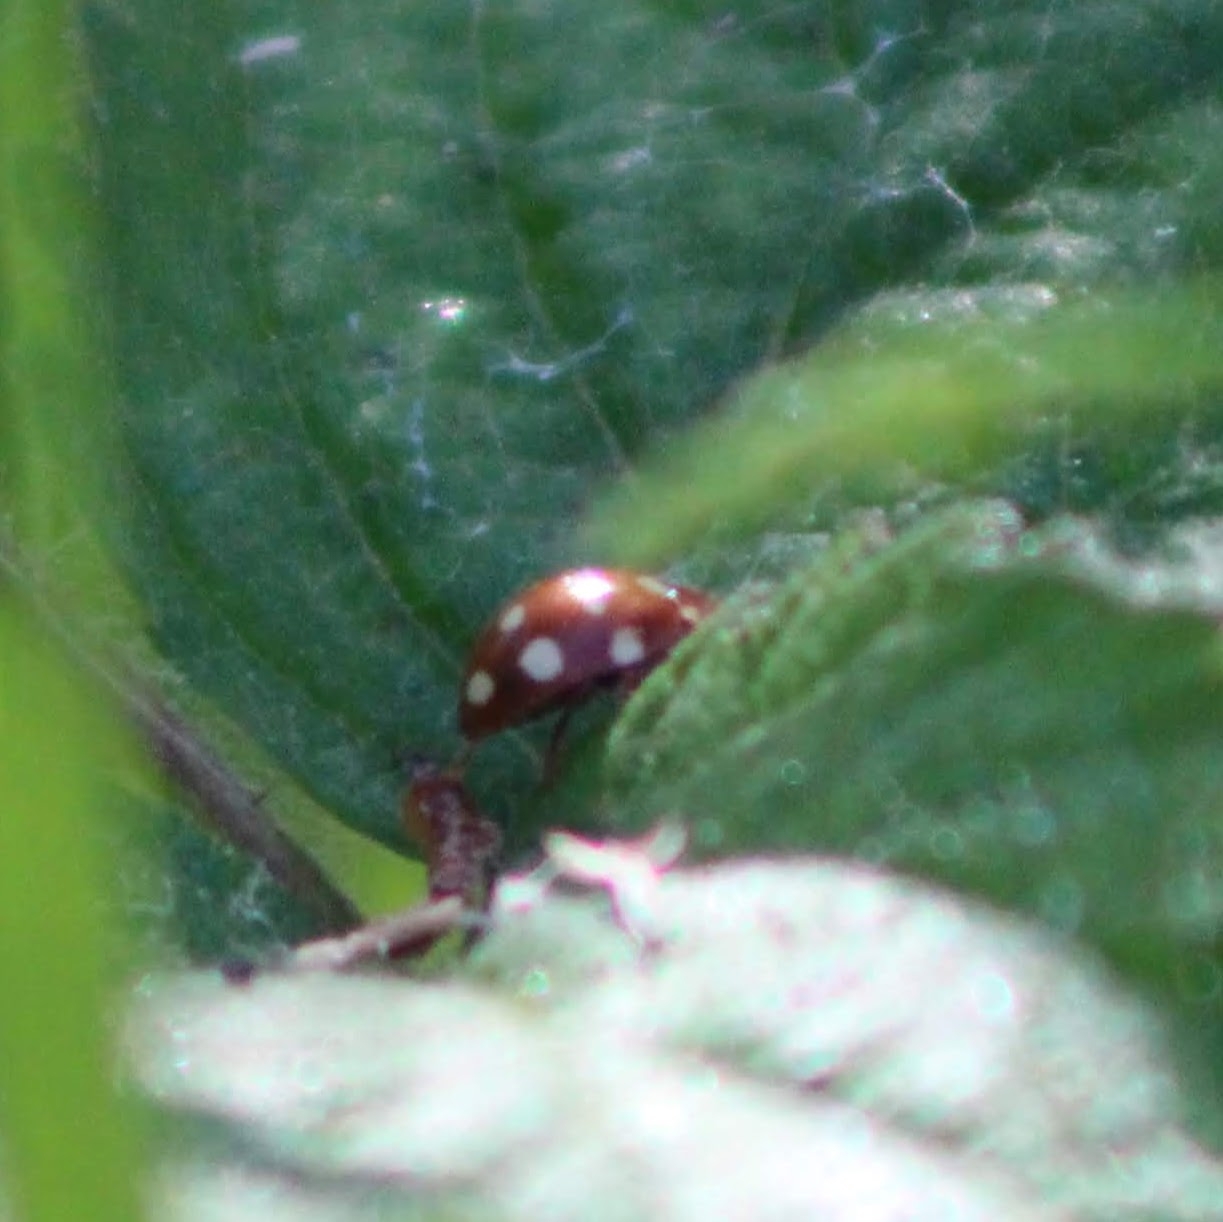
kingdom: Animalia
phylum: Arthropoda
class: Insecta
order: Coleoptera
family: Coccinellidae
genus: Calvia
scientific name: Calvia quatuordecimguttata
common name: Cream-spot ladybird
